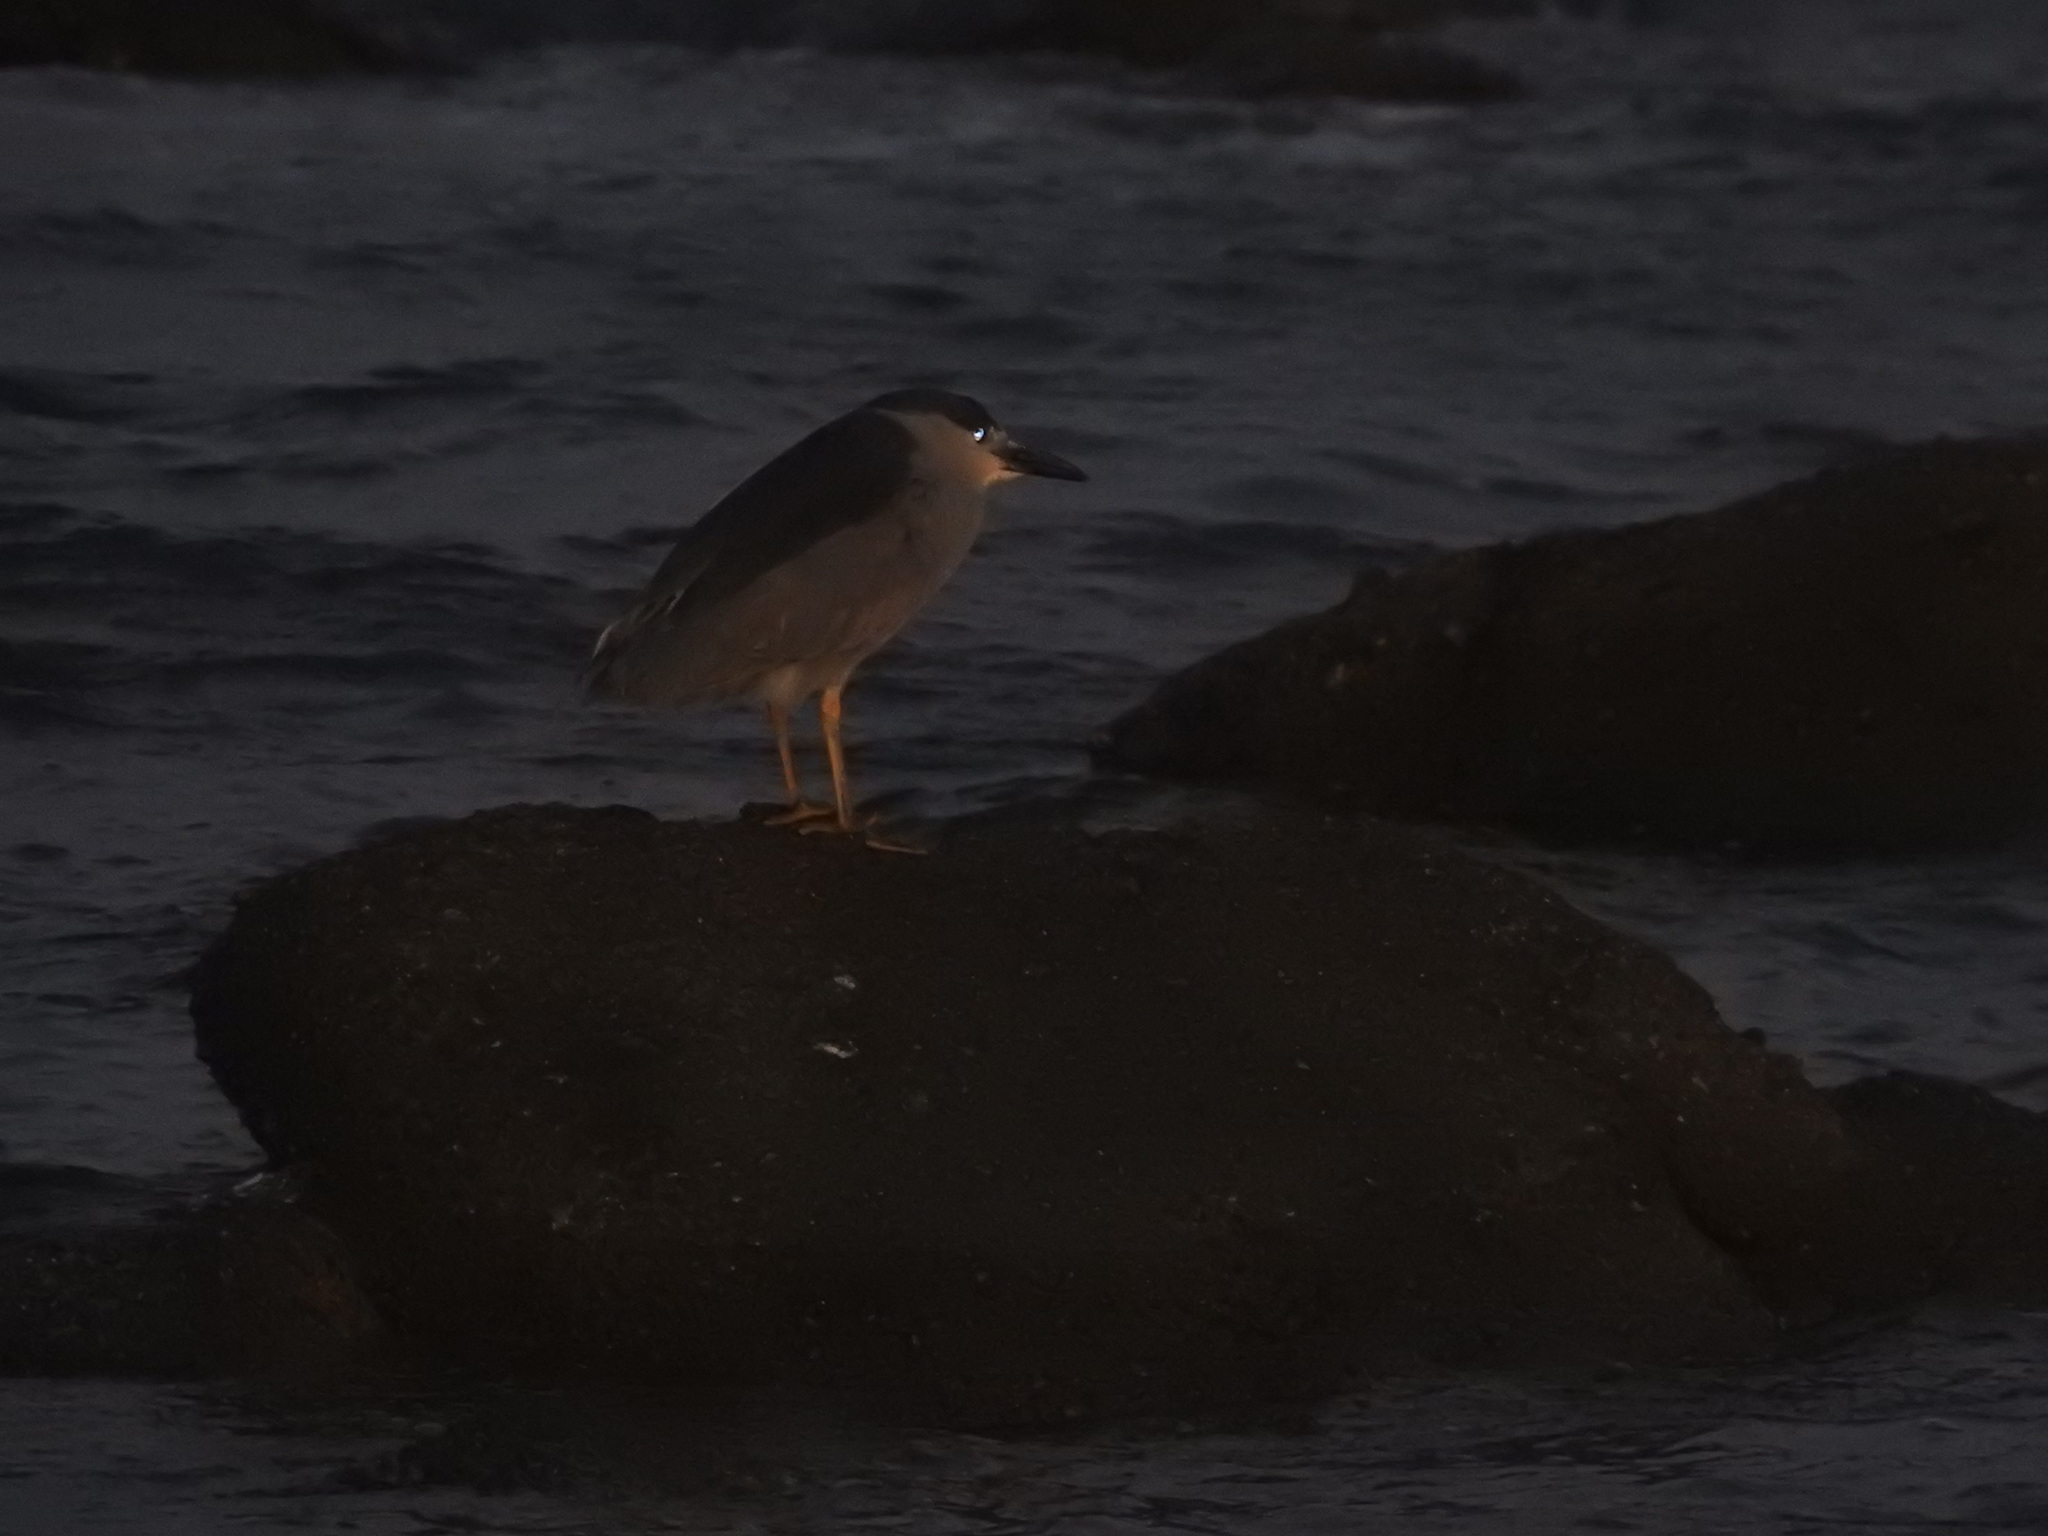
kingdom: Animalia
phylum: Chordata
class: Aves
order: Pelecaniformes
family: Ardeidae
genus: Nycticorax
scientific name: Nycticorax nycticorax
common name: Black-crowned night heron
